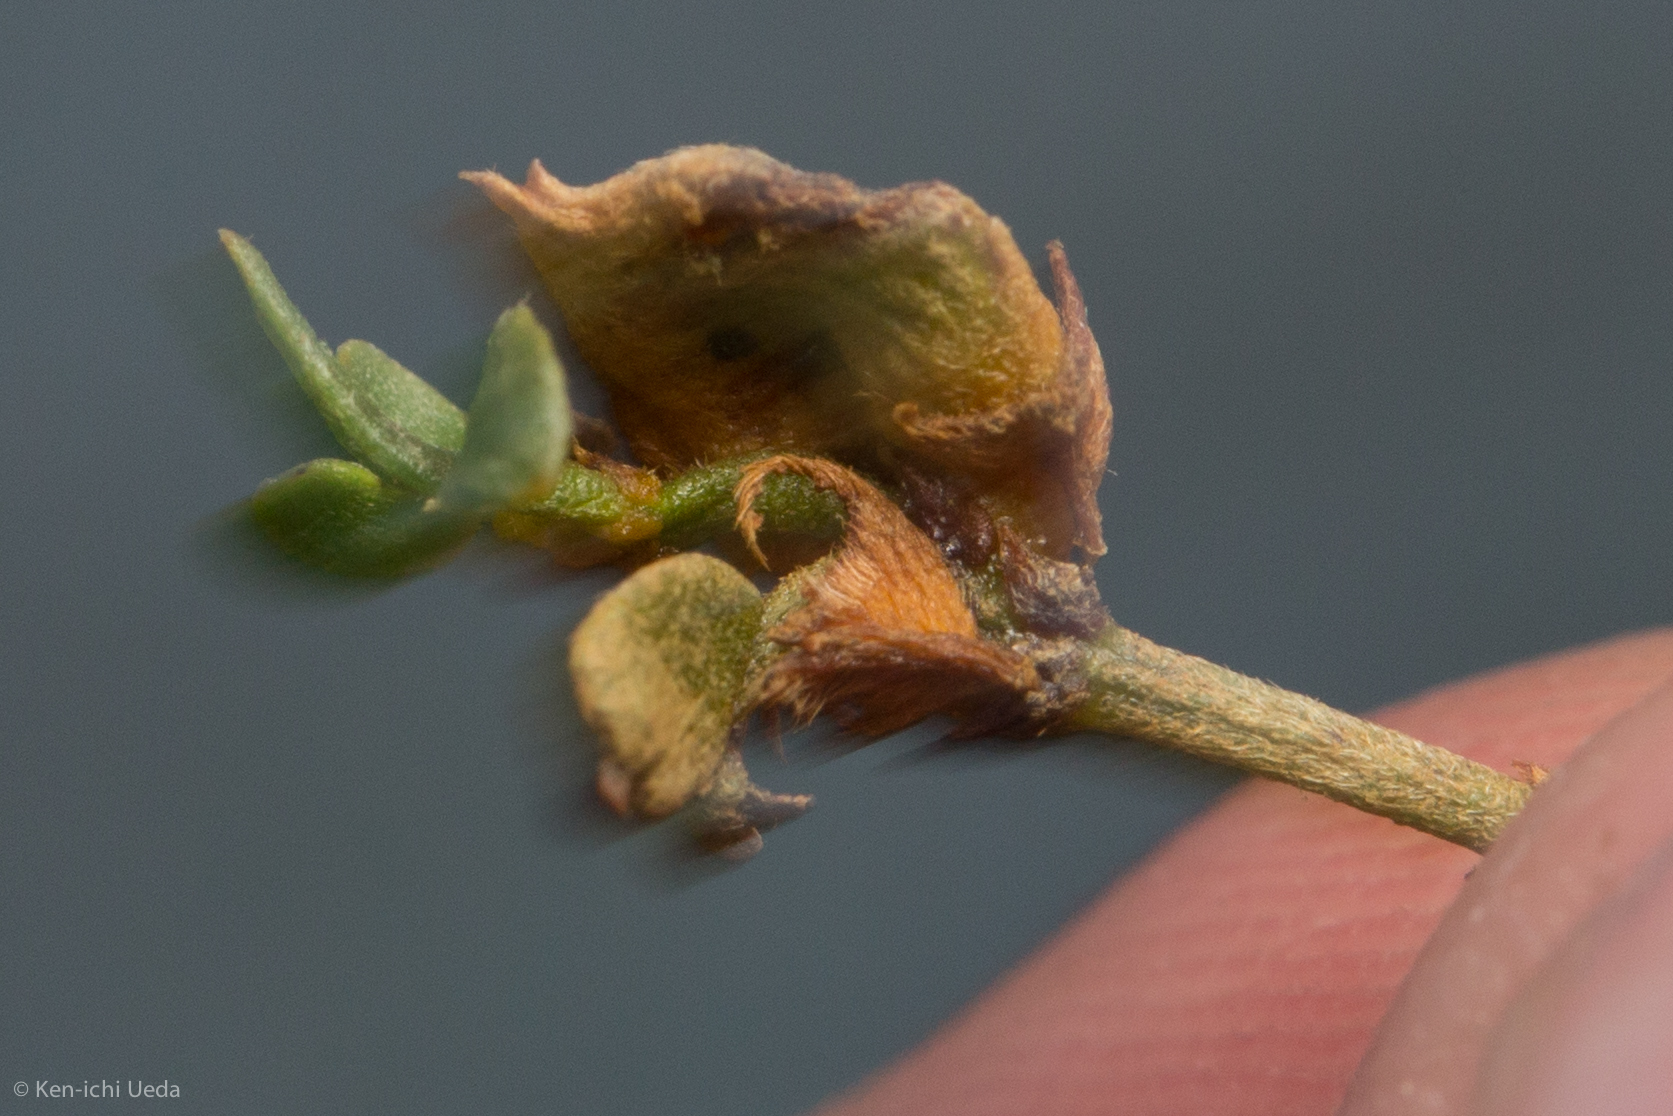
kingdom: Animalia
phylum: Arthropoda
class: Insecta
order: Diptera
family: Cecidomyiidae
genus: Asphondylia
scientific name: Asphondylia discalis
